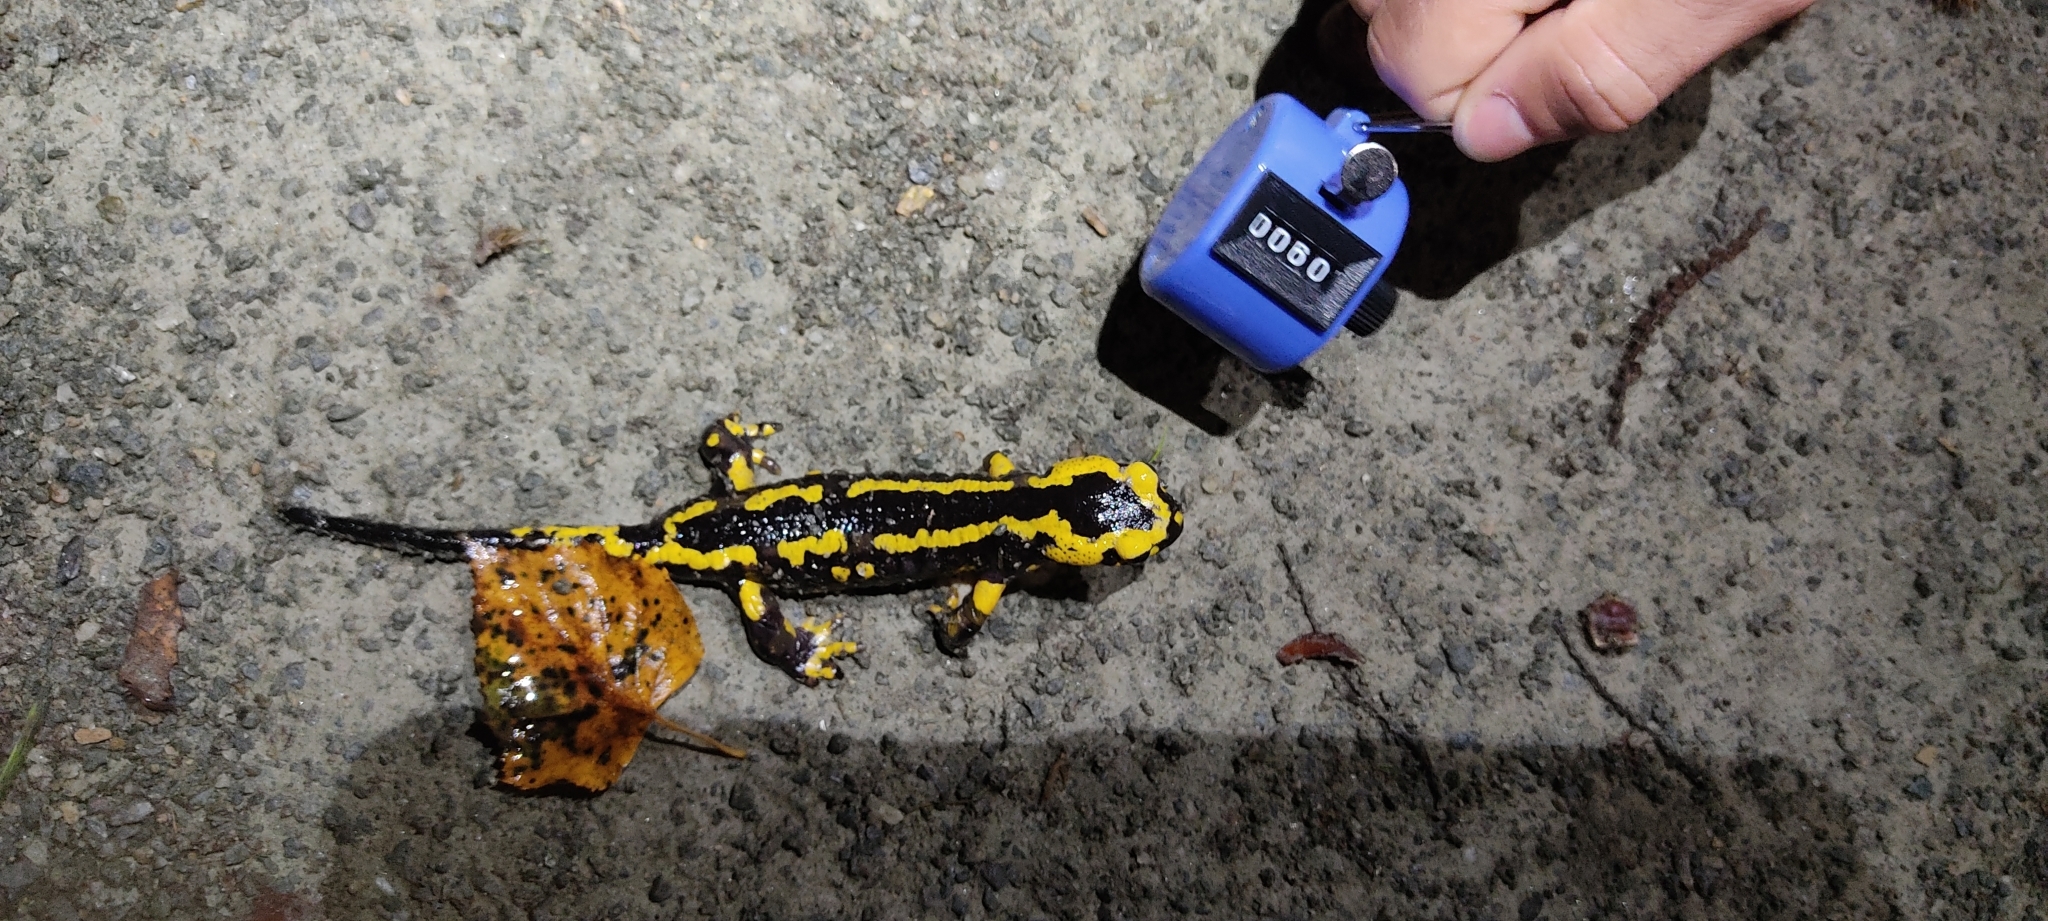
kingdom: Animalia
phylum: Chordata
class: Amphibia
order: Caudata
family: Salamandridae
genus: Salamandra
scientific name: Salamandra salamandra
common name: Fire salamander
